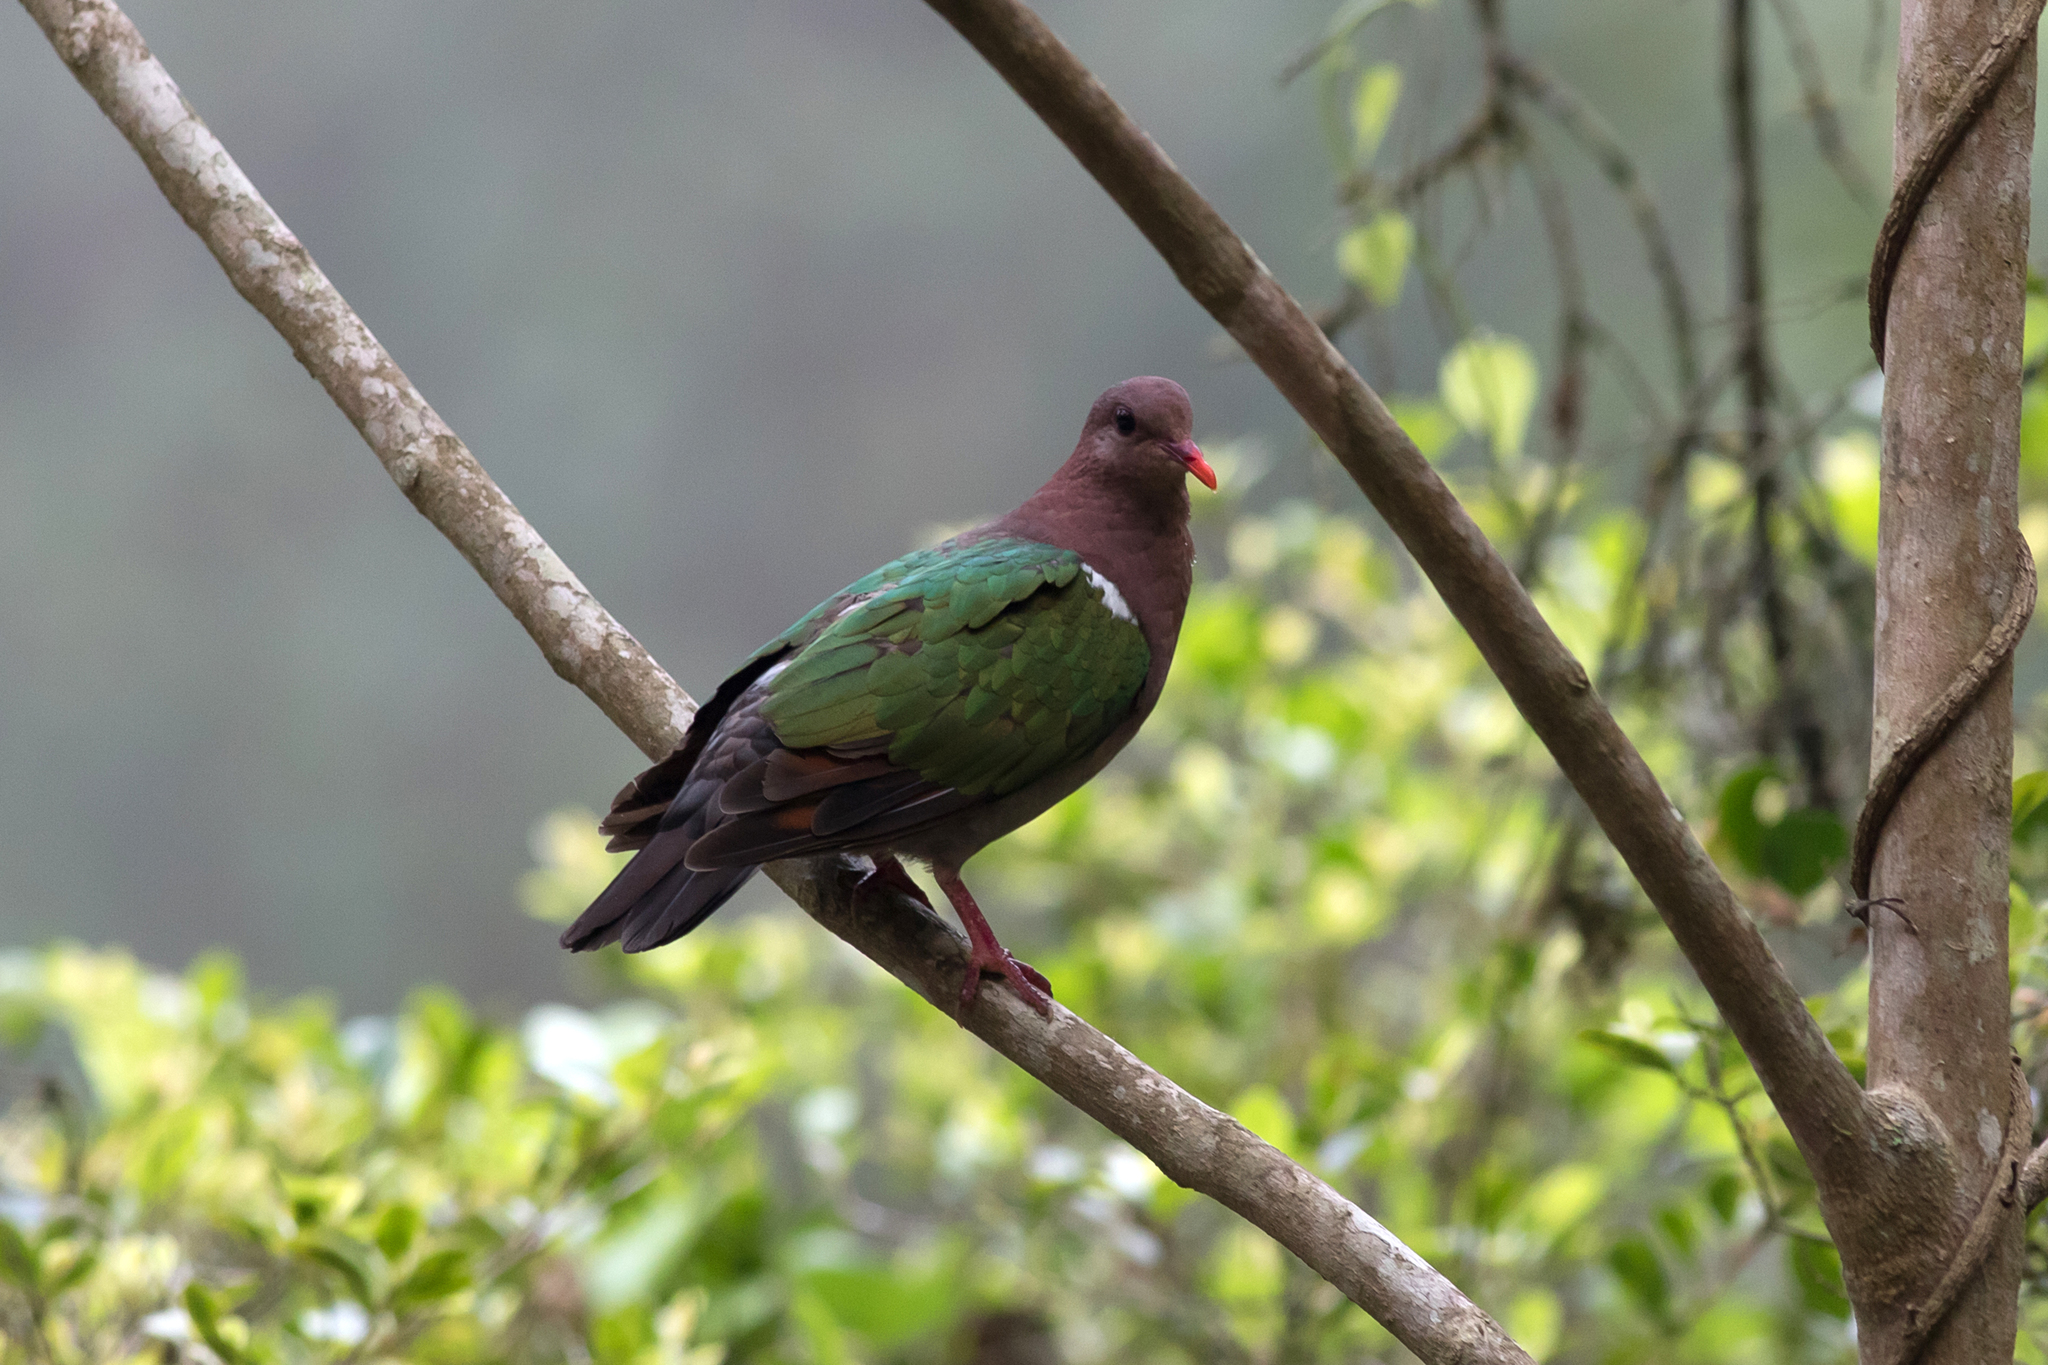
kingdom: Animalia
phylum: Chordata
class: Aves
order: Columbiformes
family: Columbidae
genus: Chalcophaps
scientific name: Chalcophaps longirostris
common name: Pacific emerald dove
